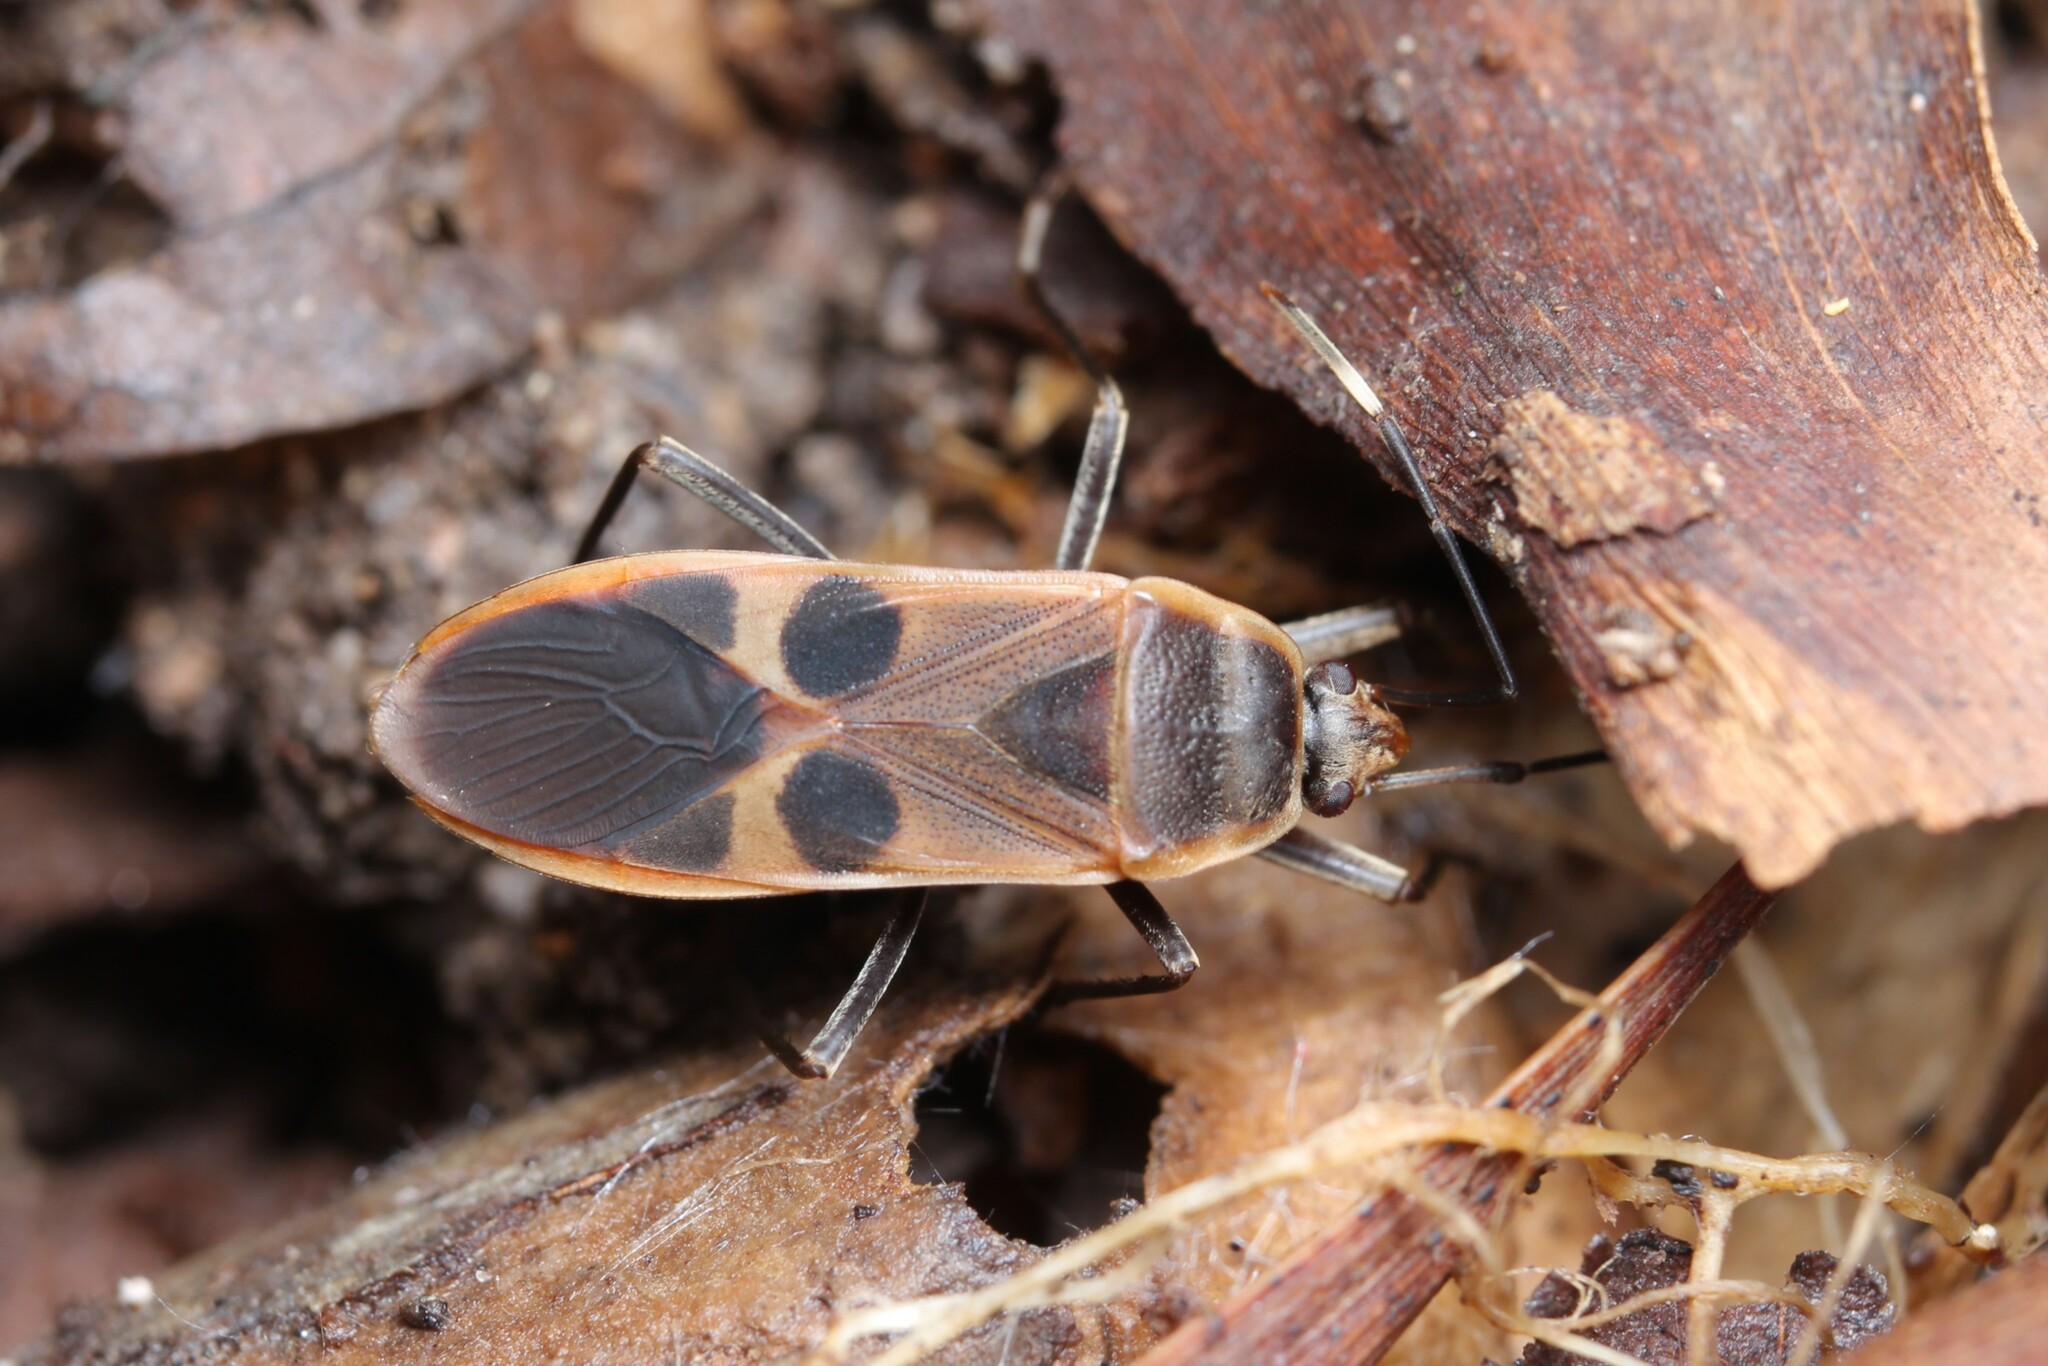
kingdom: Animalia
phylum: Arthropoda
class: Insecta
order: Hemiptera
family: Largidae
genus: Physopelta
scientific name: Physopelta gutta
